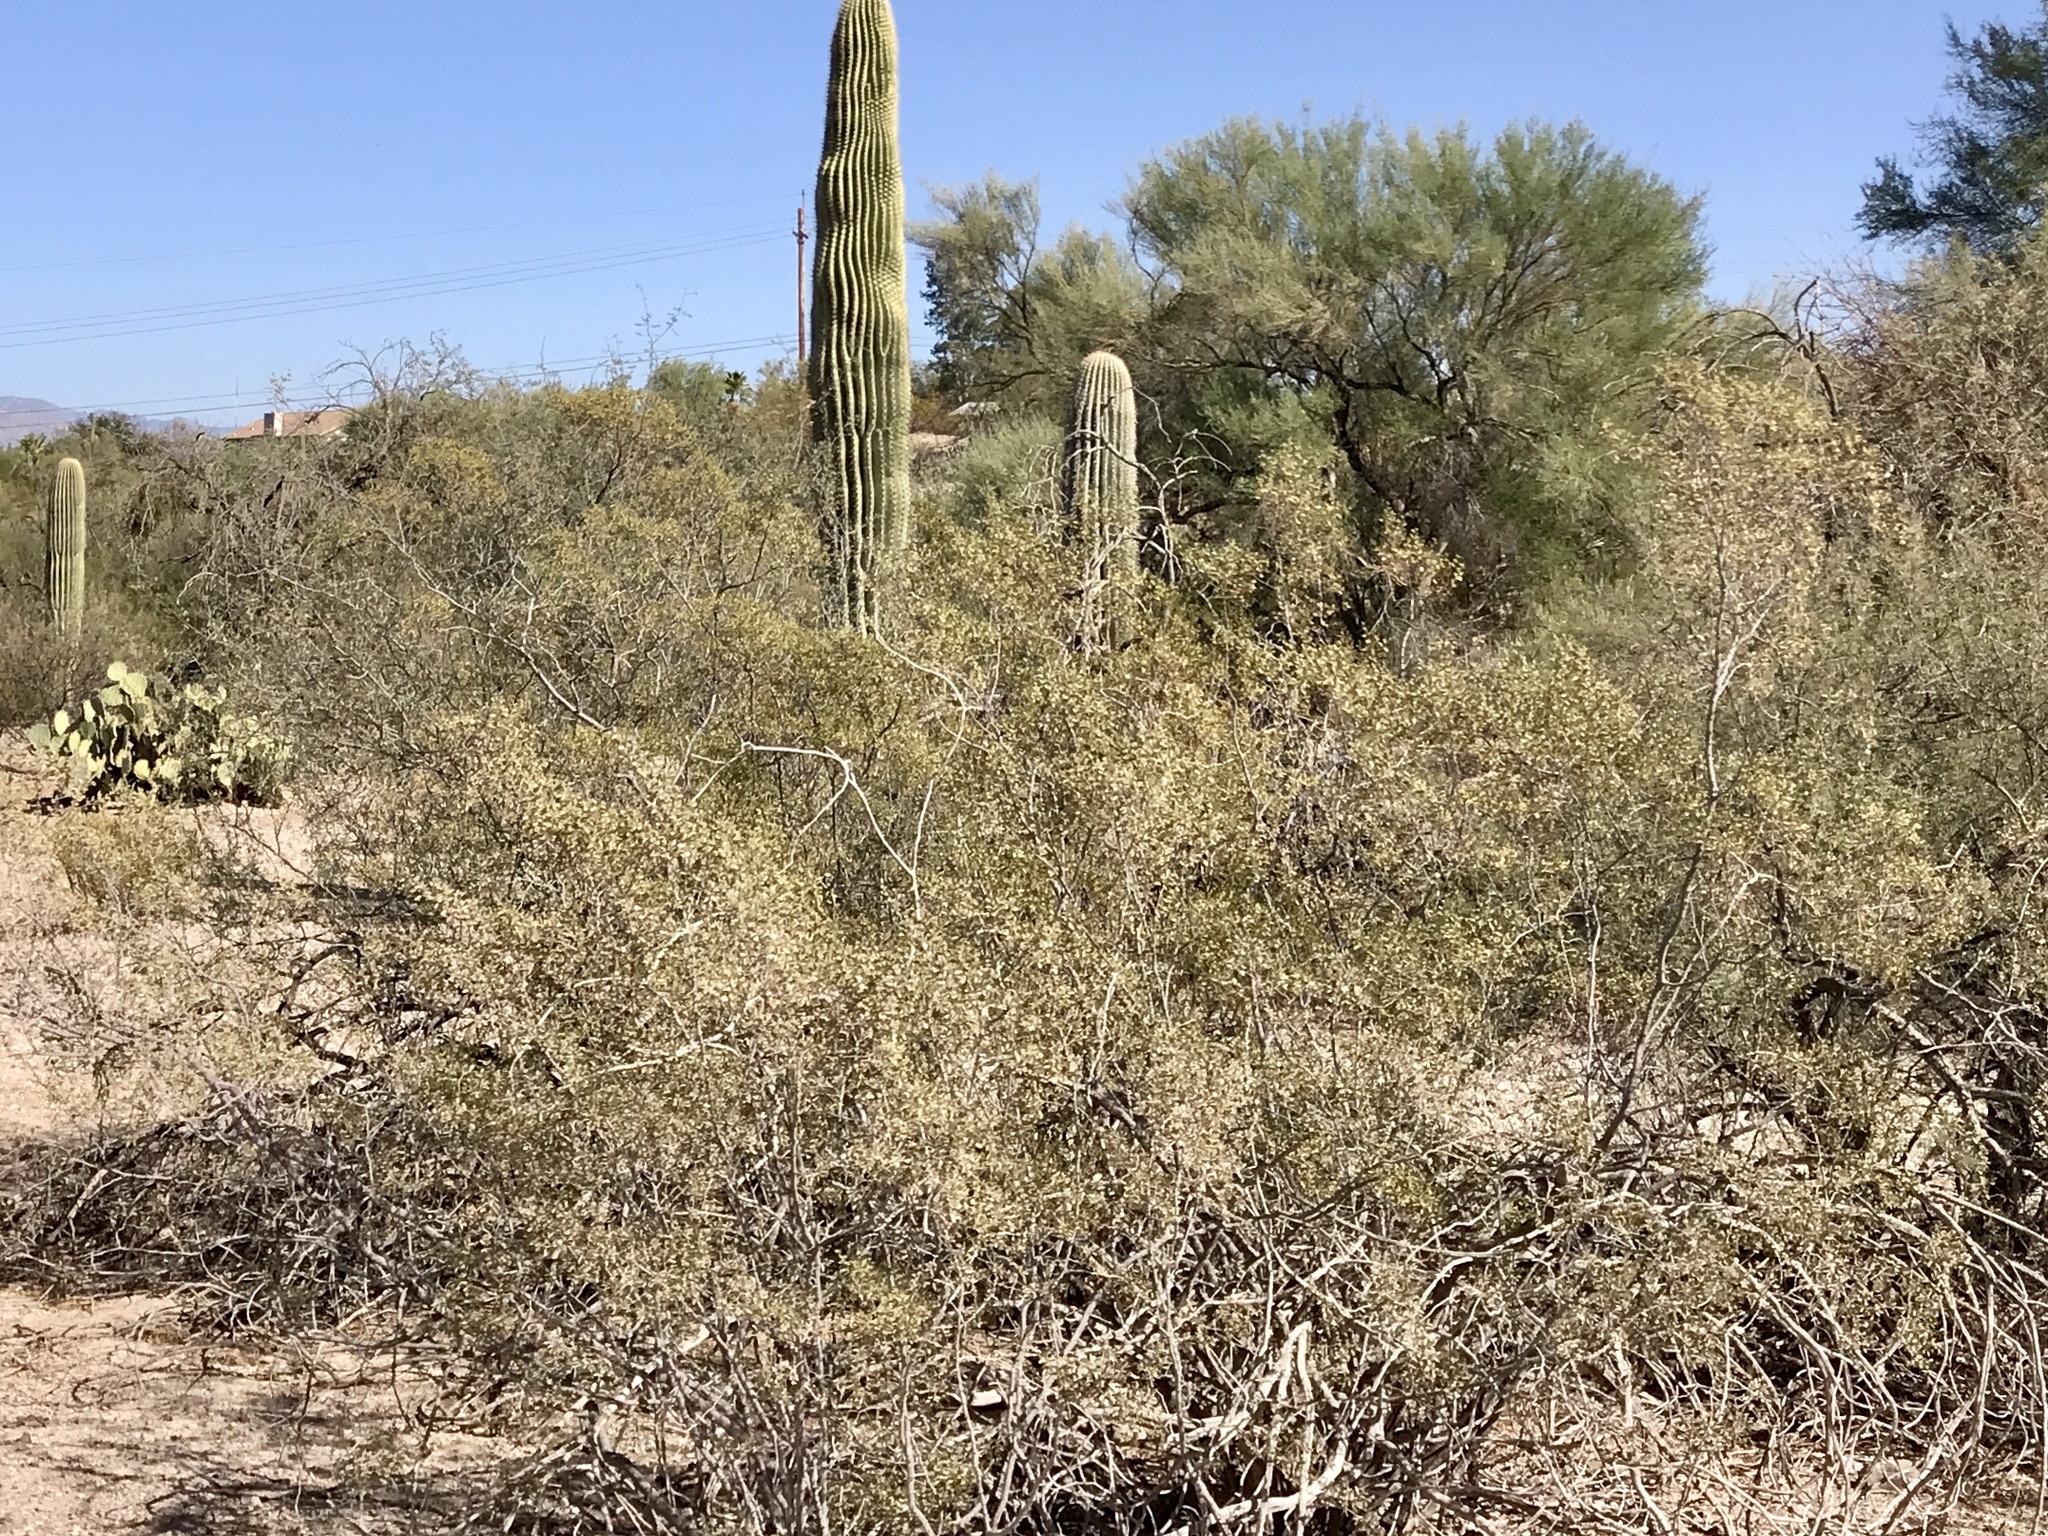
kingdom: Plantae
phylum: Tracheophyta
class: Magnoliopsida
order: Zygophyllales
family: Zygophyllaceae
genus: Larrea
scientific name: Larrea tridentata
